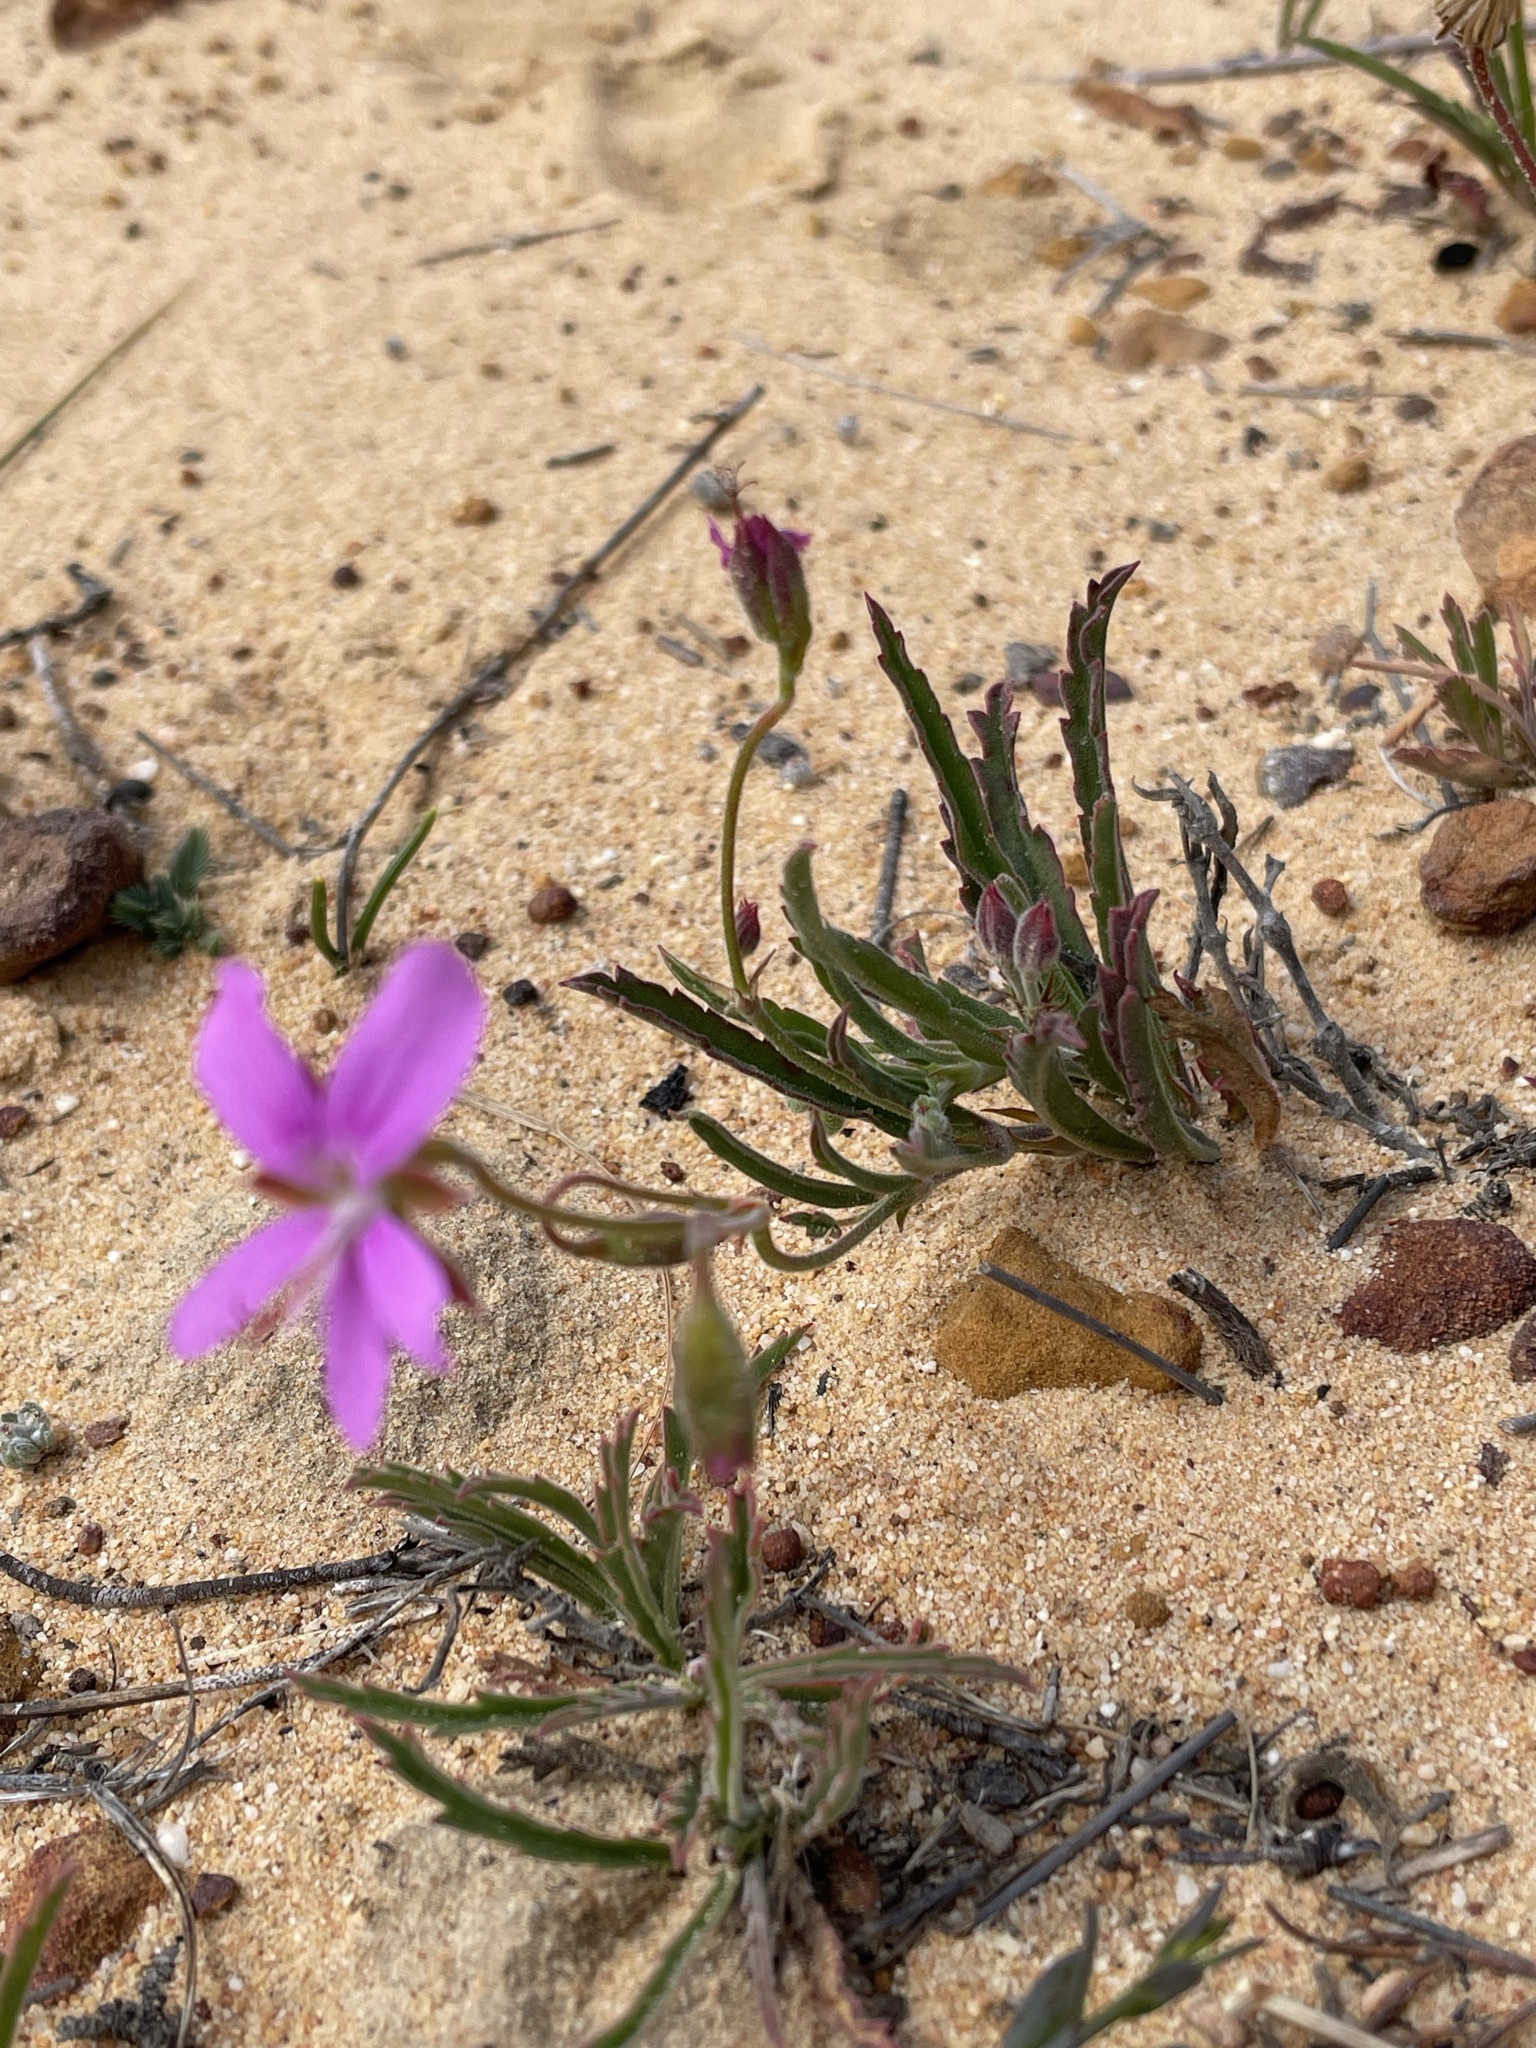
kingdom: Plantae
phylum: Tracheophyta
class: Magnoliopsida
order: Geraniales
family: Geraniaceae
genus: Pelargonium
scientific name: Pelargonium coronopifolium
